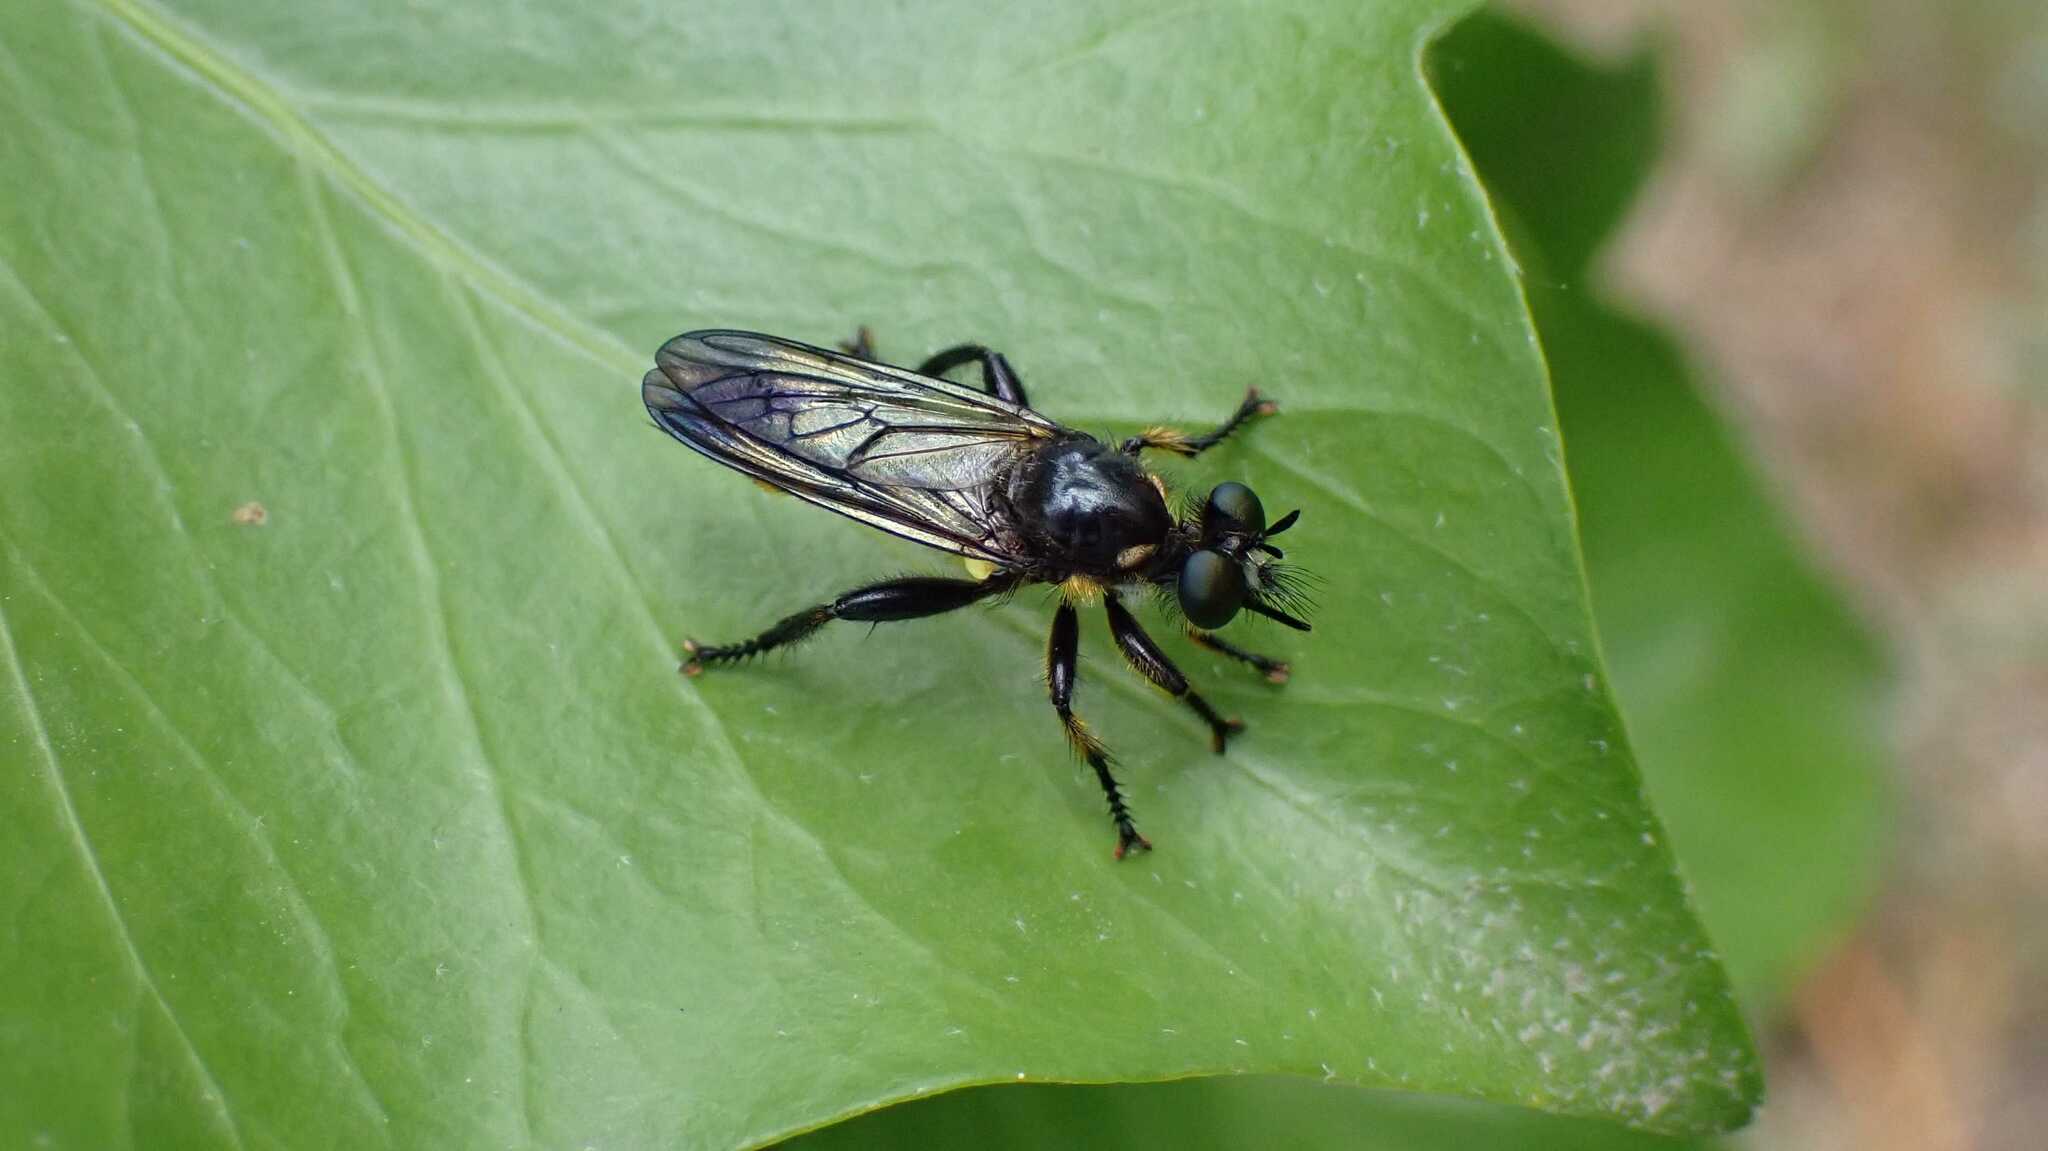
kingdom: Animalia
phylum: Arthropoda
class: Insecta
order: Diptera
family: Asilidae
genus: Lamyra
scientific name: Lamyra fimbriata
